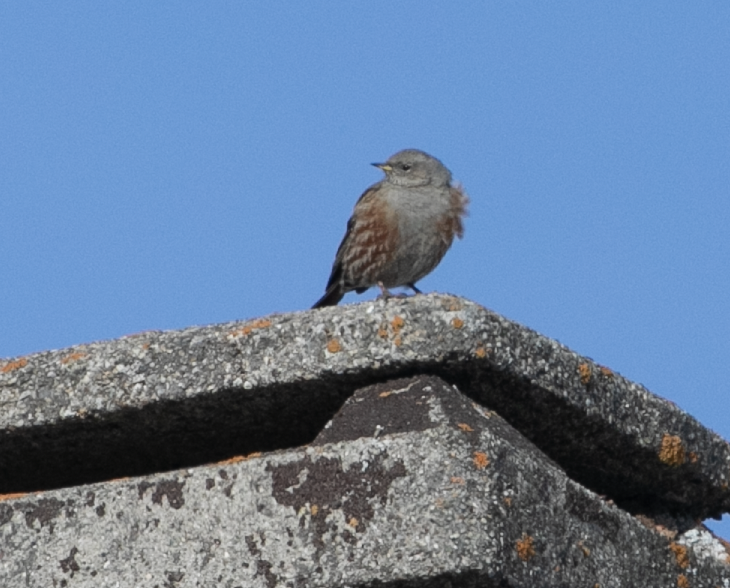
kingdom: Animalia
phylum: Chordata
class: Aves
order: Passeriformes
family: Prunellidae
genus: Prunella
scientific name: Prunella collaris
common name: Alpine accentor
